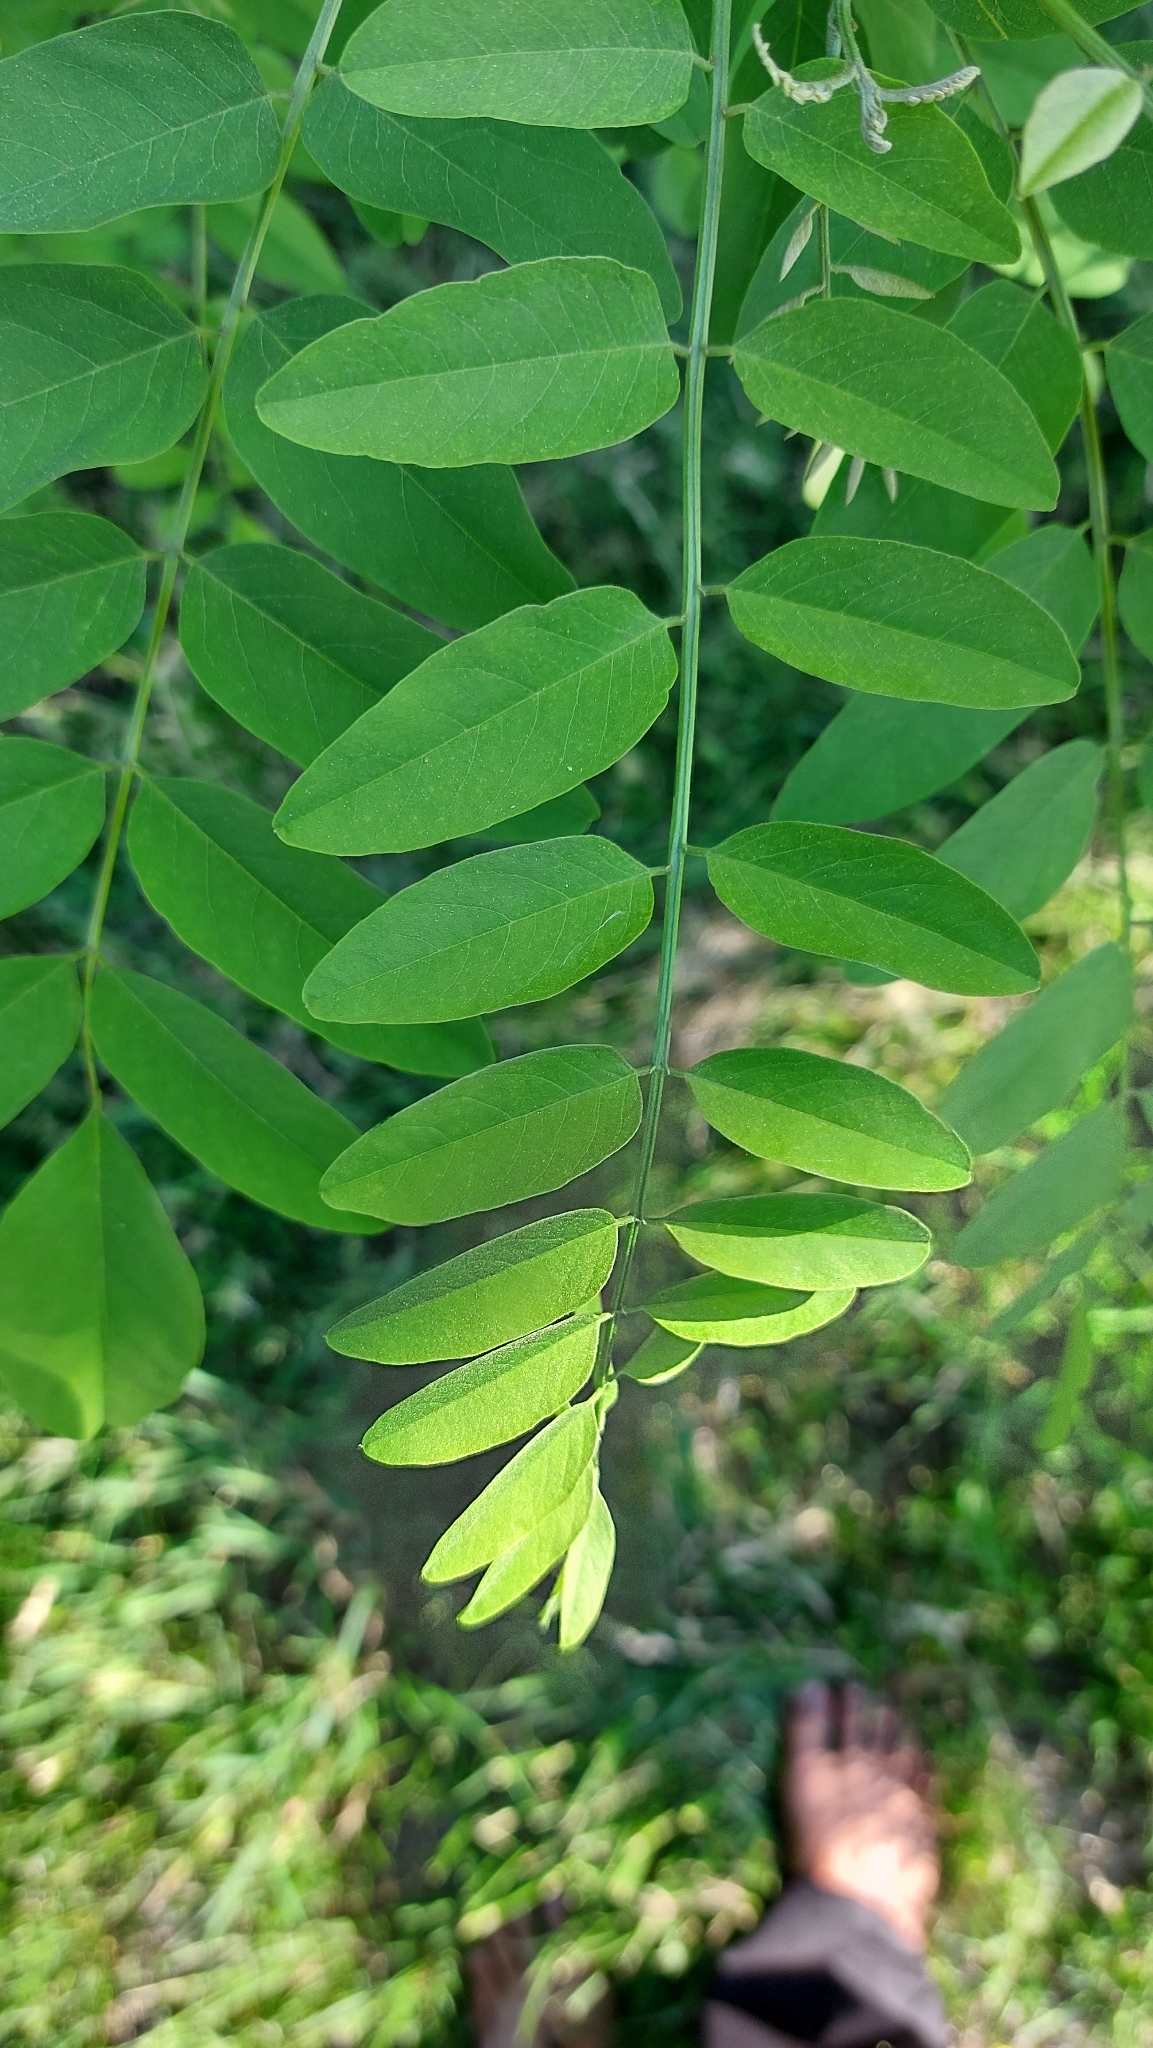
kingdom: Plantae
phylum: Tracheophyta
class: Magnoliopsida
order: Fabales
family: Fabaceae
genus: Robinia
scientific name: Robinia pseudoacacia
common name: Black locust
